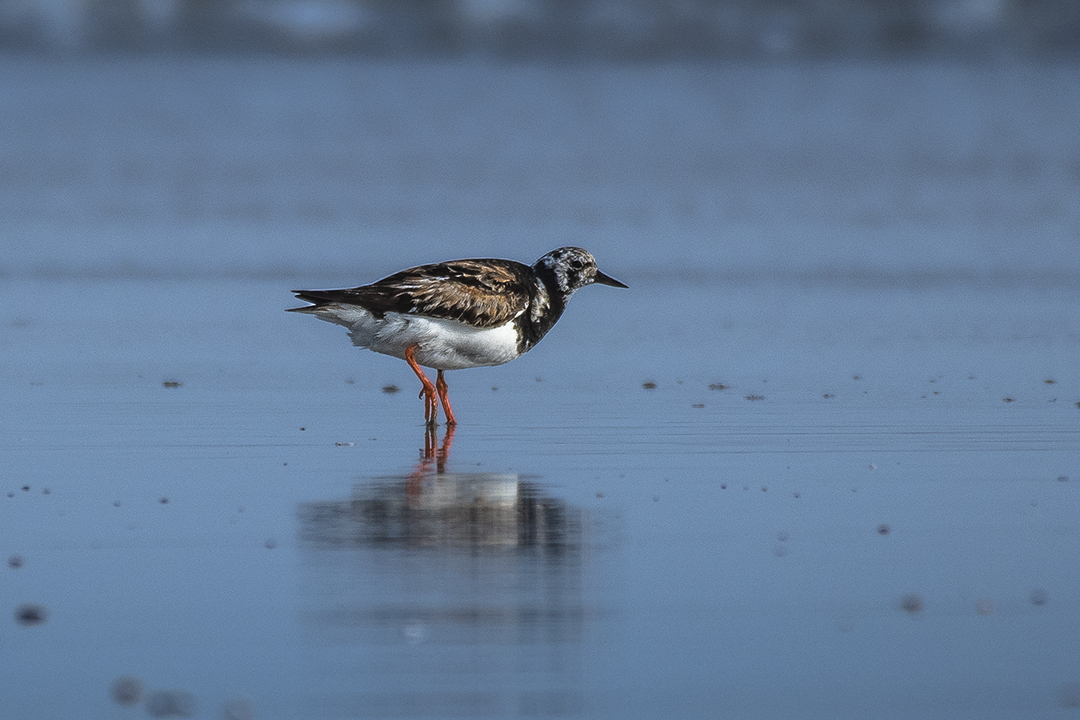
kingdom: Animalia
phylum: Chordata
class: Aves
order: Charadriiformes
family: Scolopacidae
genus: Arenaria
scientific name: Arenaria interpres
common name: Ruddy turnstone
